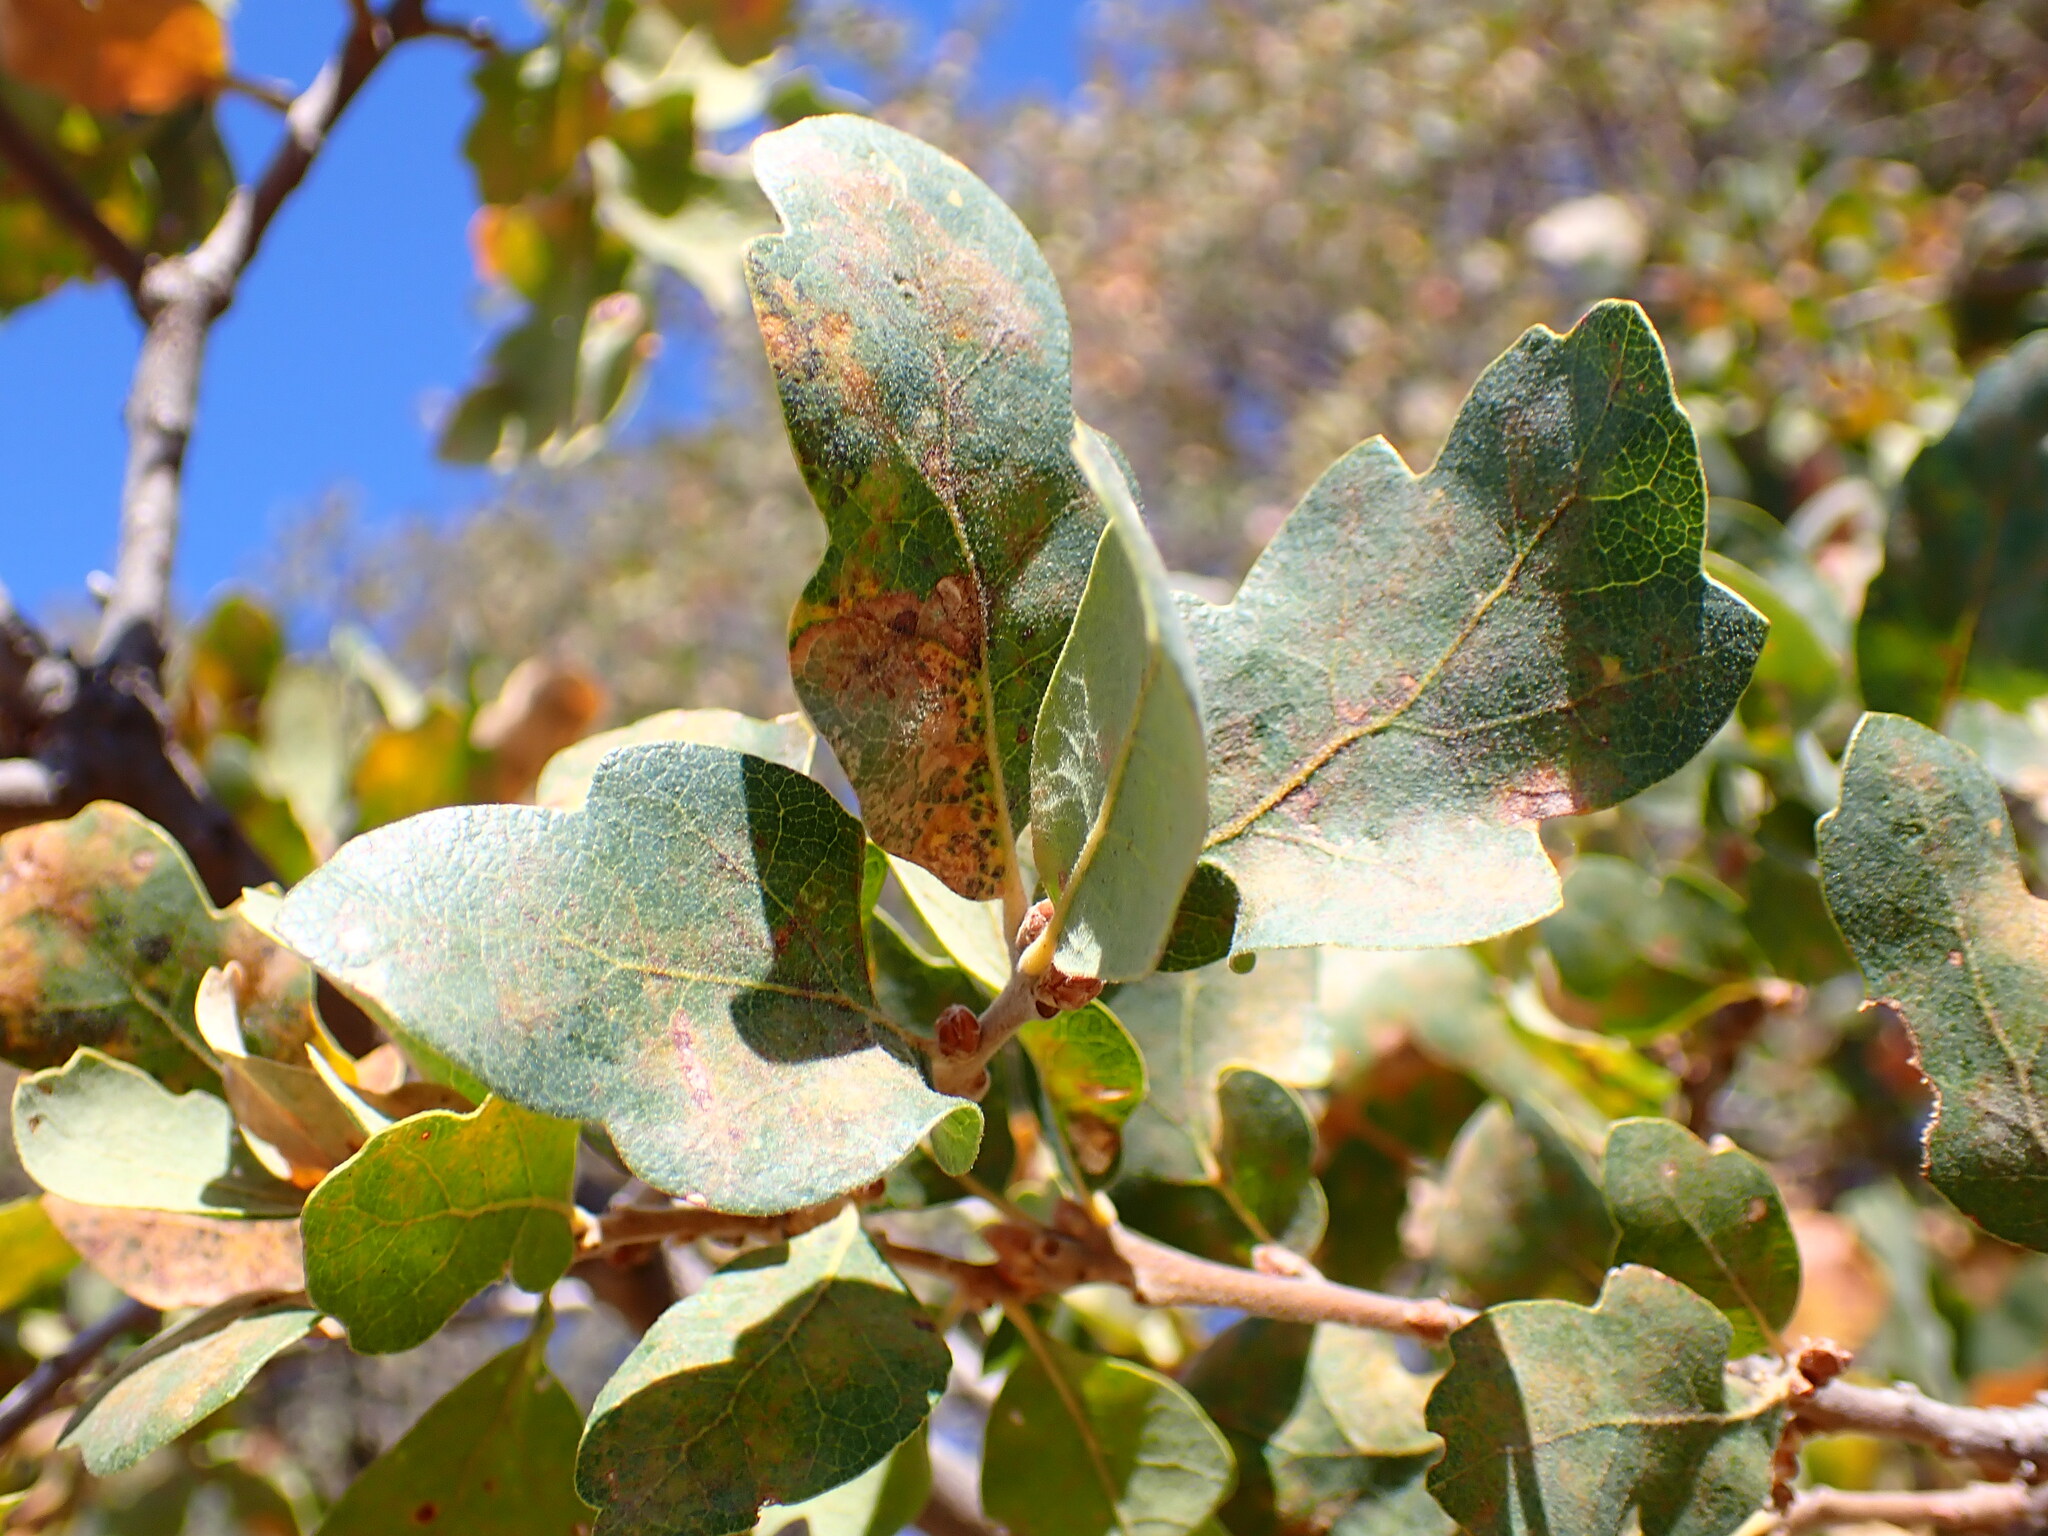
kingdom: Plantae
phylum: Tracheophyta
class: Magnoliopsida
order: Fagales
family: Fagaceae
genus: Quercus
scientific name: Quercus douglasii
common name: Blue oak
